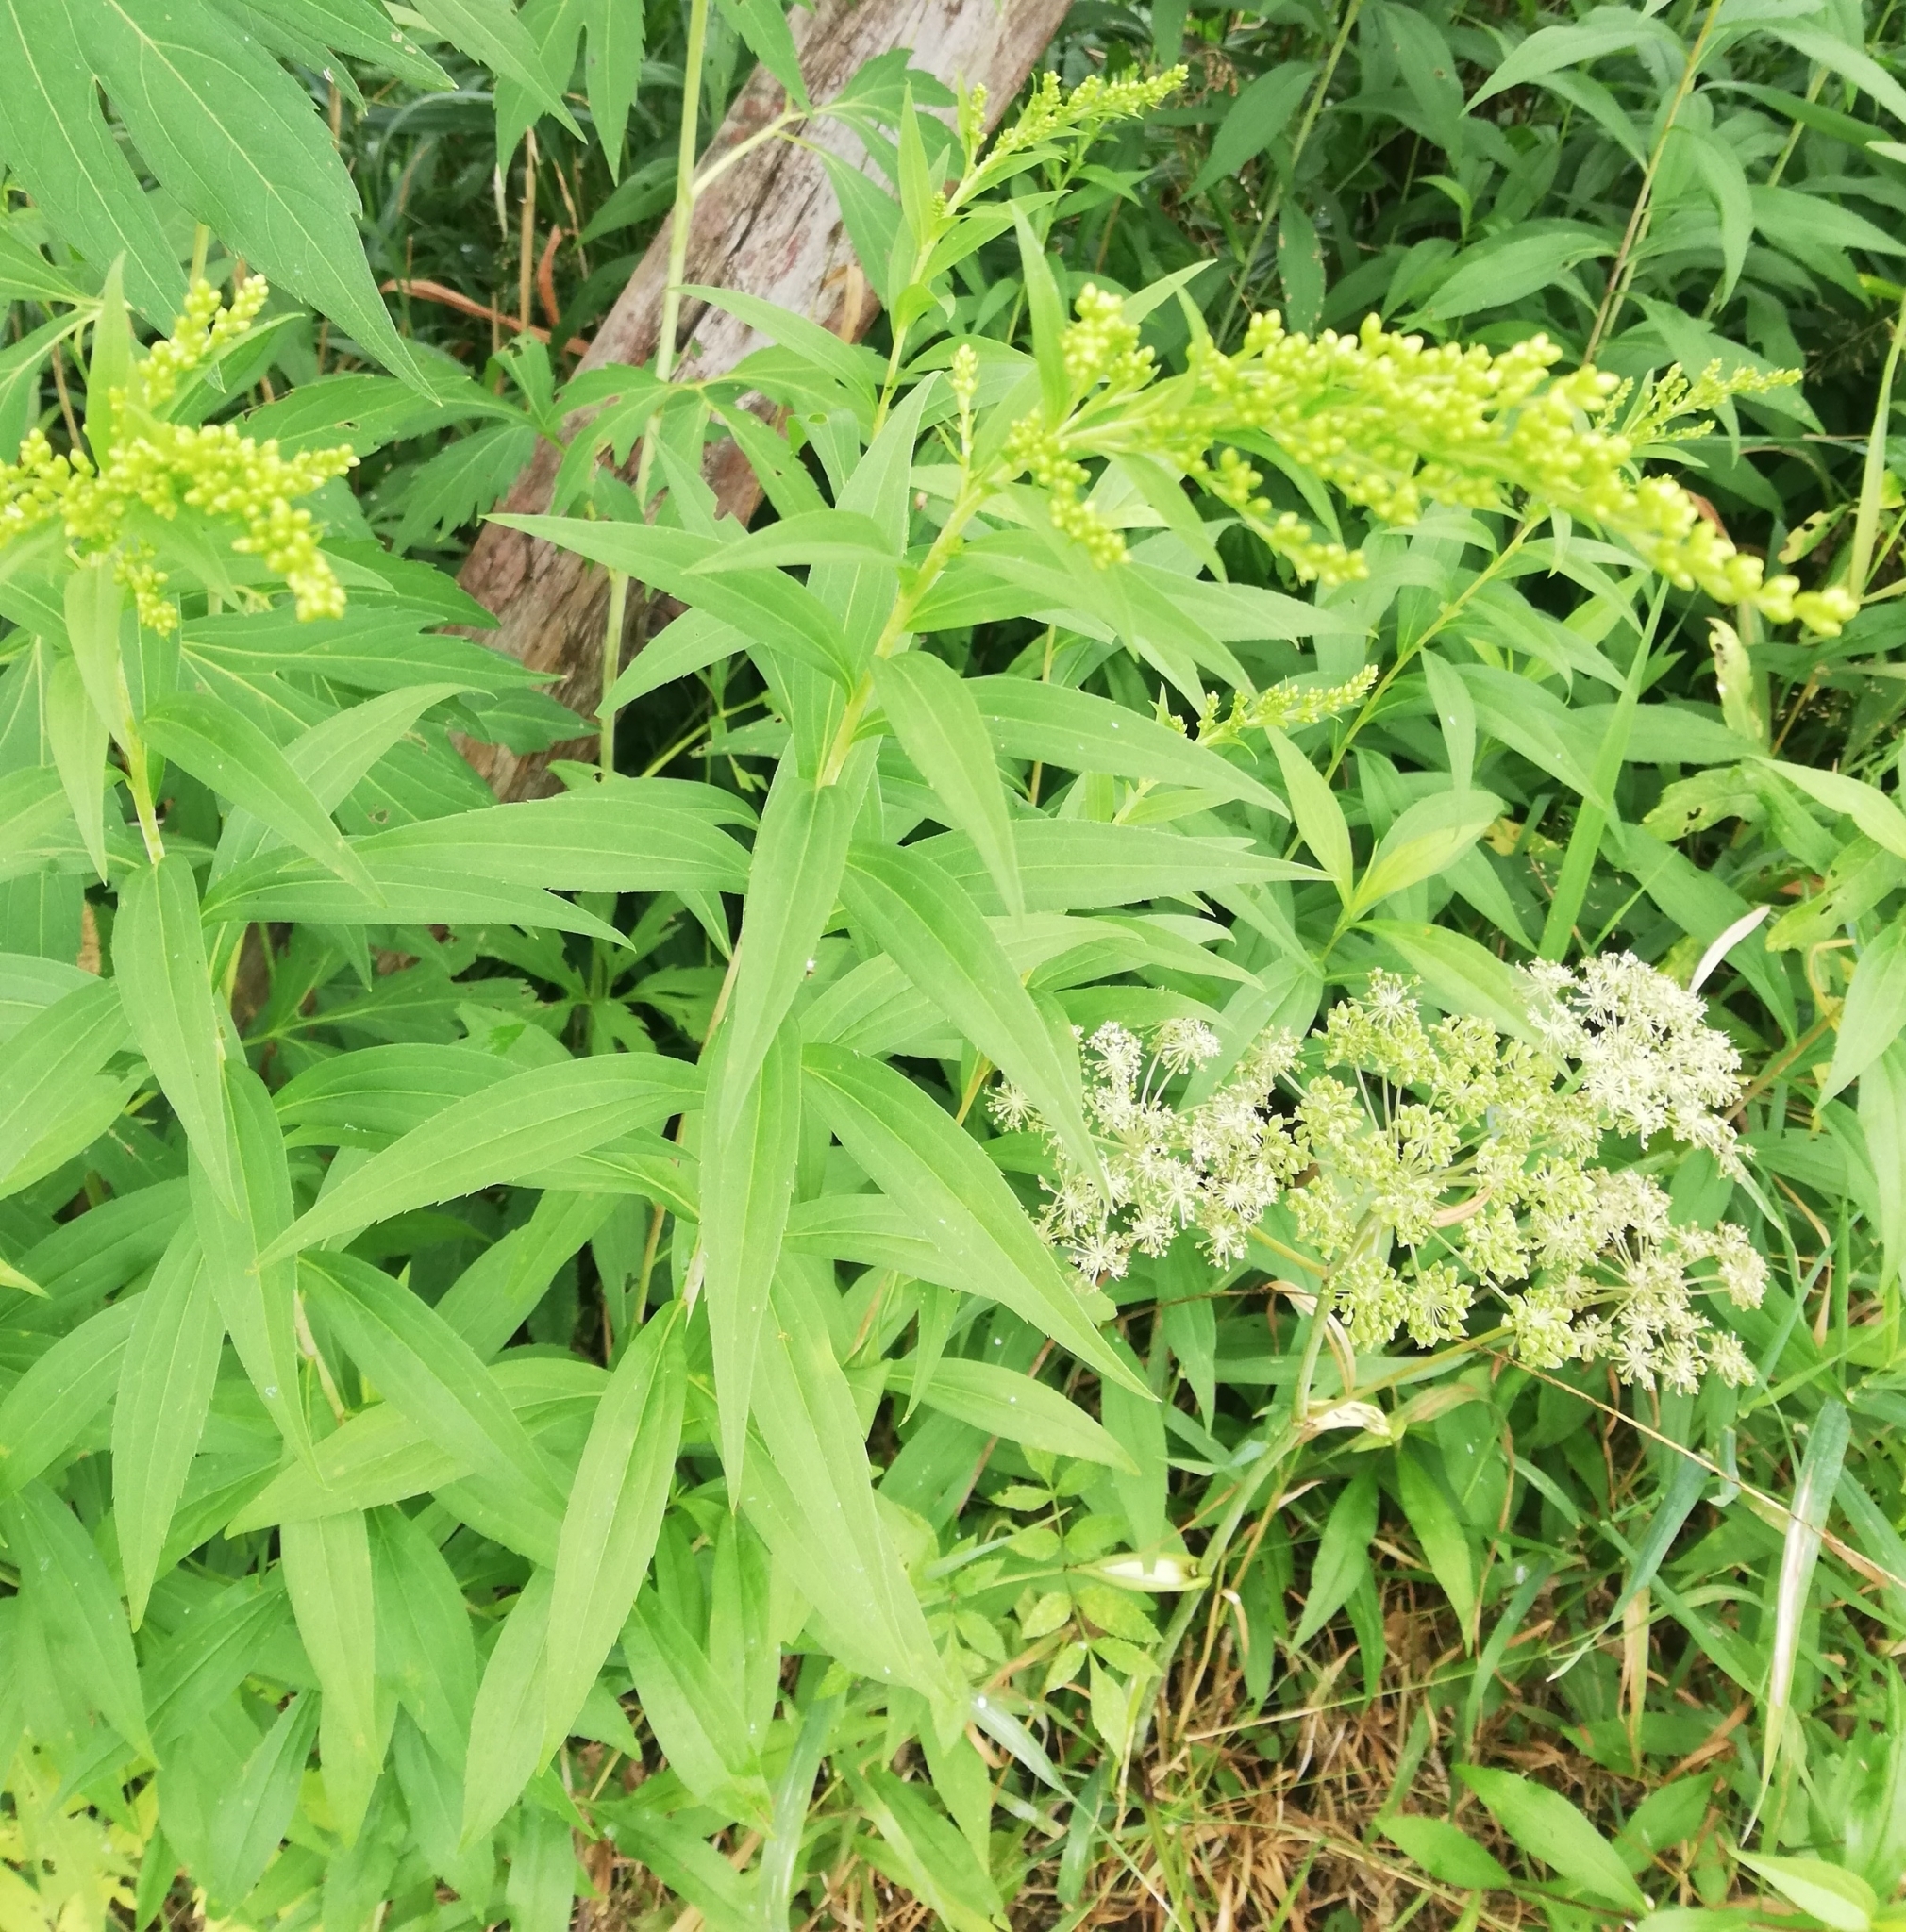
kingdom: Plantae
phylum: Tracheophyta
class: Magnoliopsida
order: Asterales
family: Asteraceae
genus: Solidago
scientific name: Solidago canadensis
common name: Canada goldenrod
